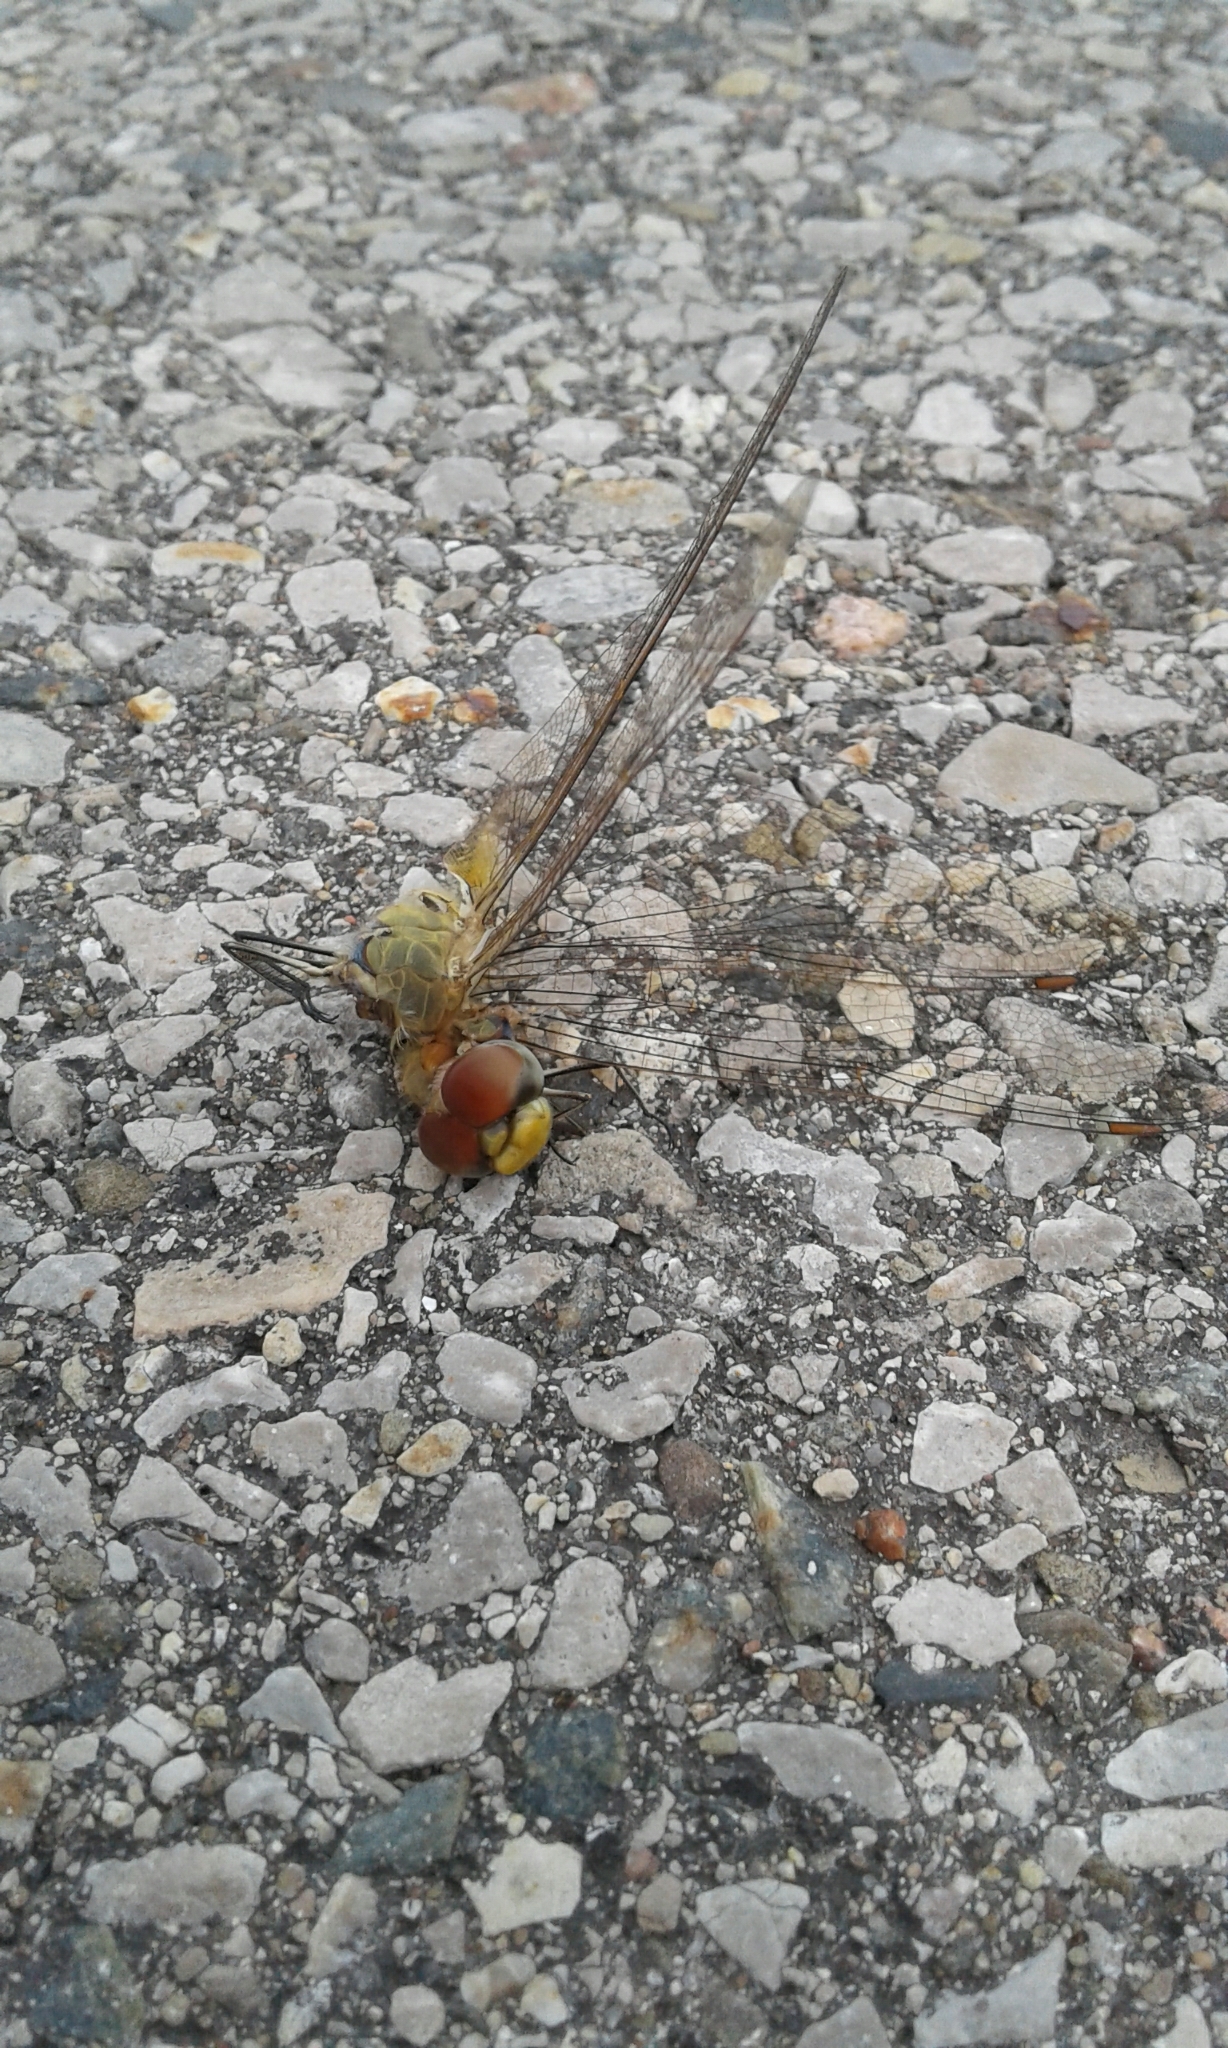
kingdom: Animalia
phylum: Arthropoda
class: Insecta
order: Odonata
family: Libellulidae
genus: Pantala
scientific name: Pantala flavescens
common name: Wandering glider
